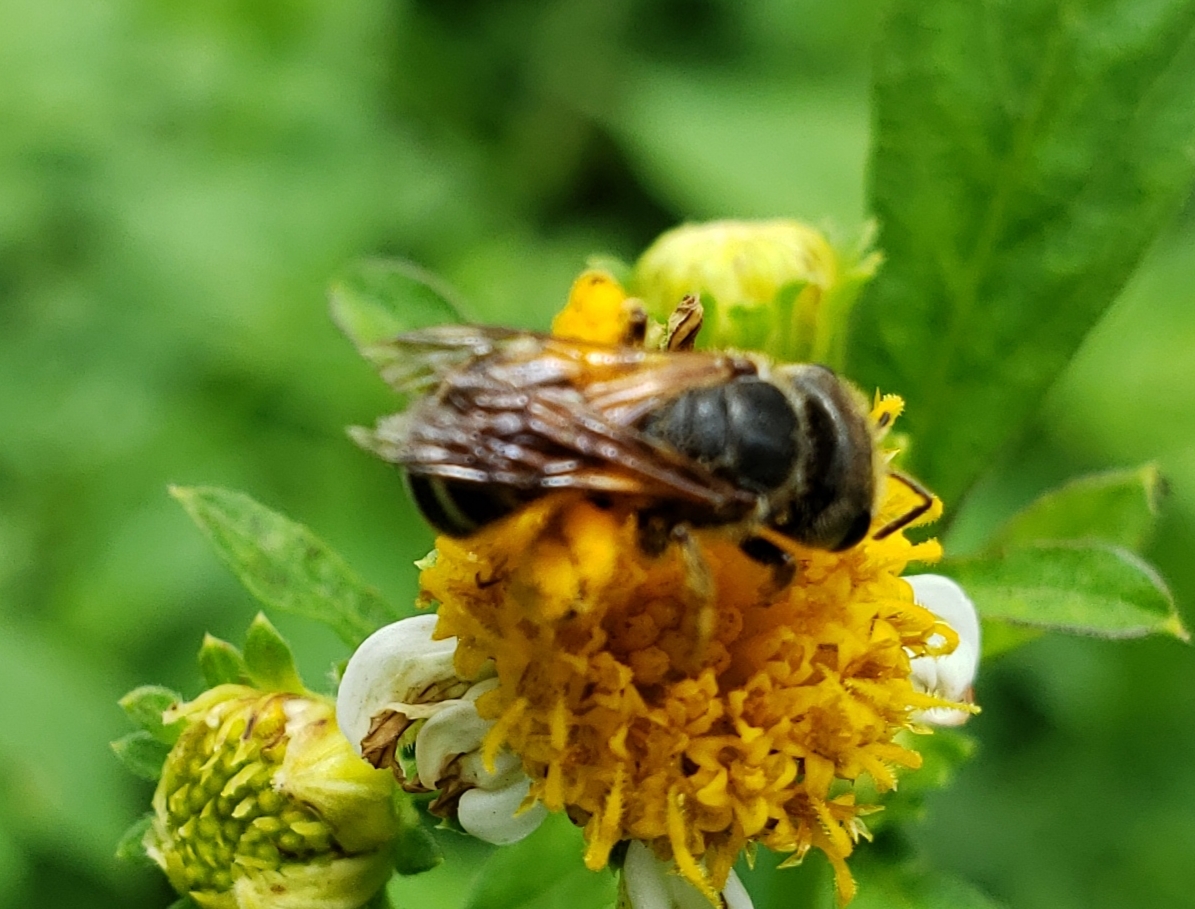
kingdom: Animalia
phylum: Arthropoda
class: Insecta
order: Hymenoptera
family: Halictidae
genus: Halictus
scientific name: Halictus poeyi
